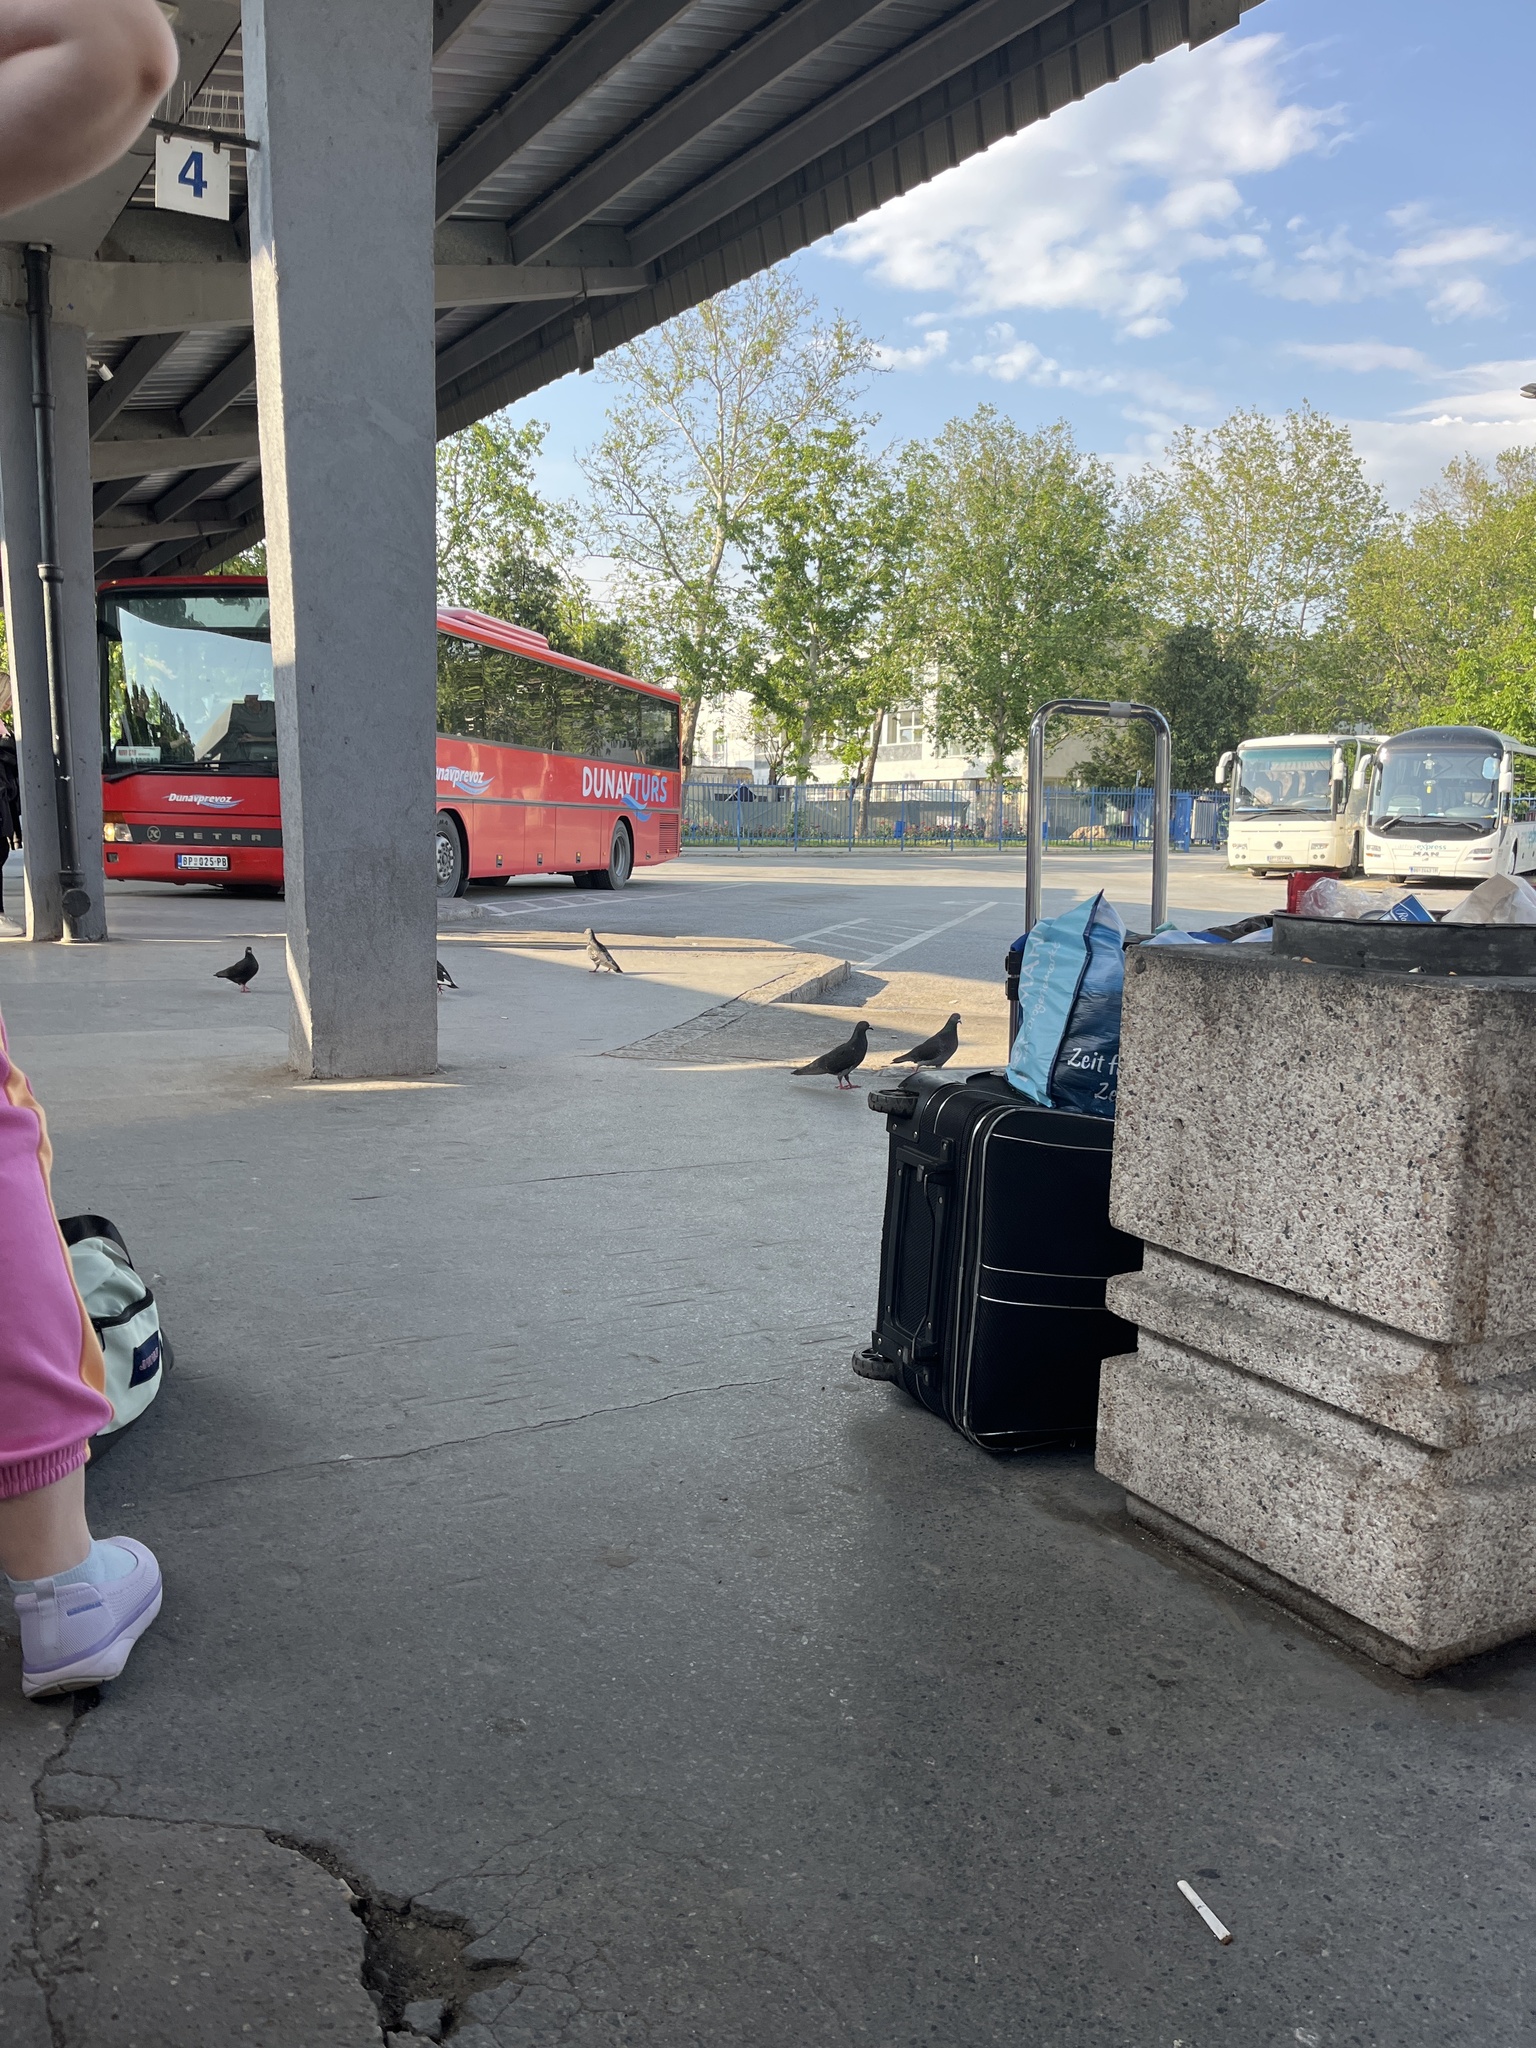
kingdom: Animalia
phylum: Chordata
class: Aves
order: Columbiformes
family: Columbidae
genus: Columba
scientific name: Columba livia
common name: Rock pigeon
